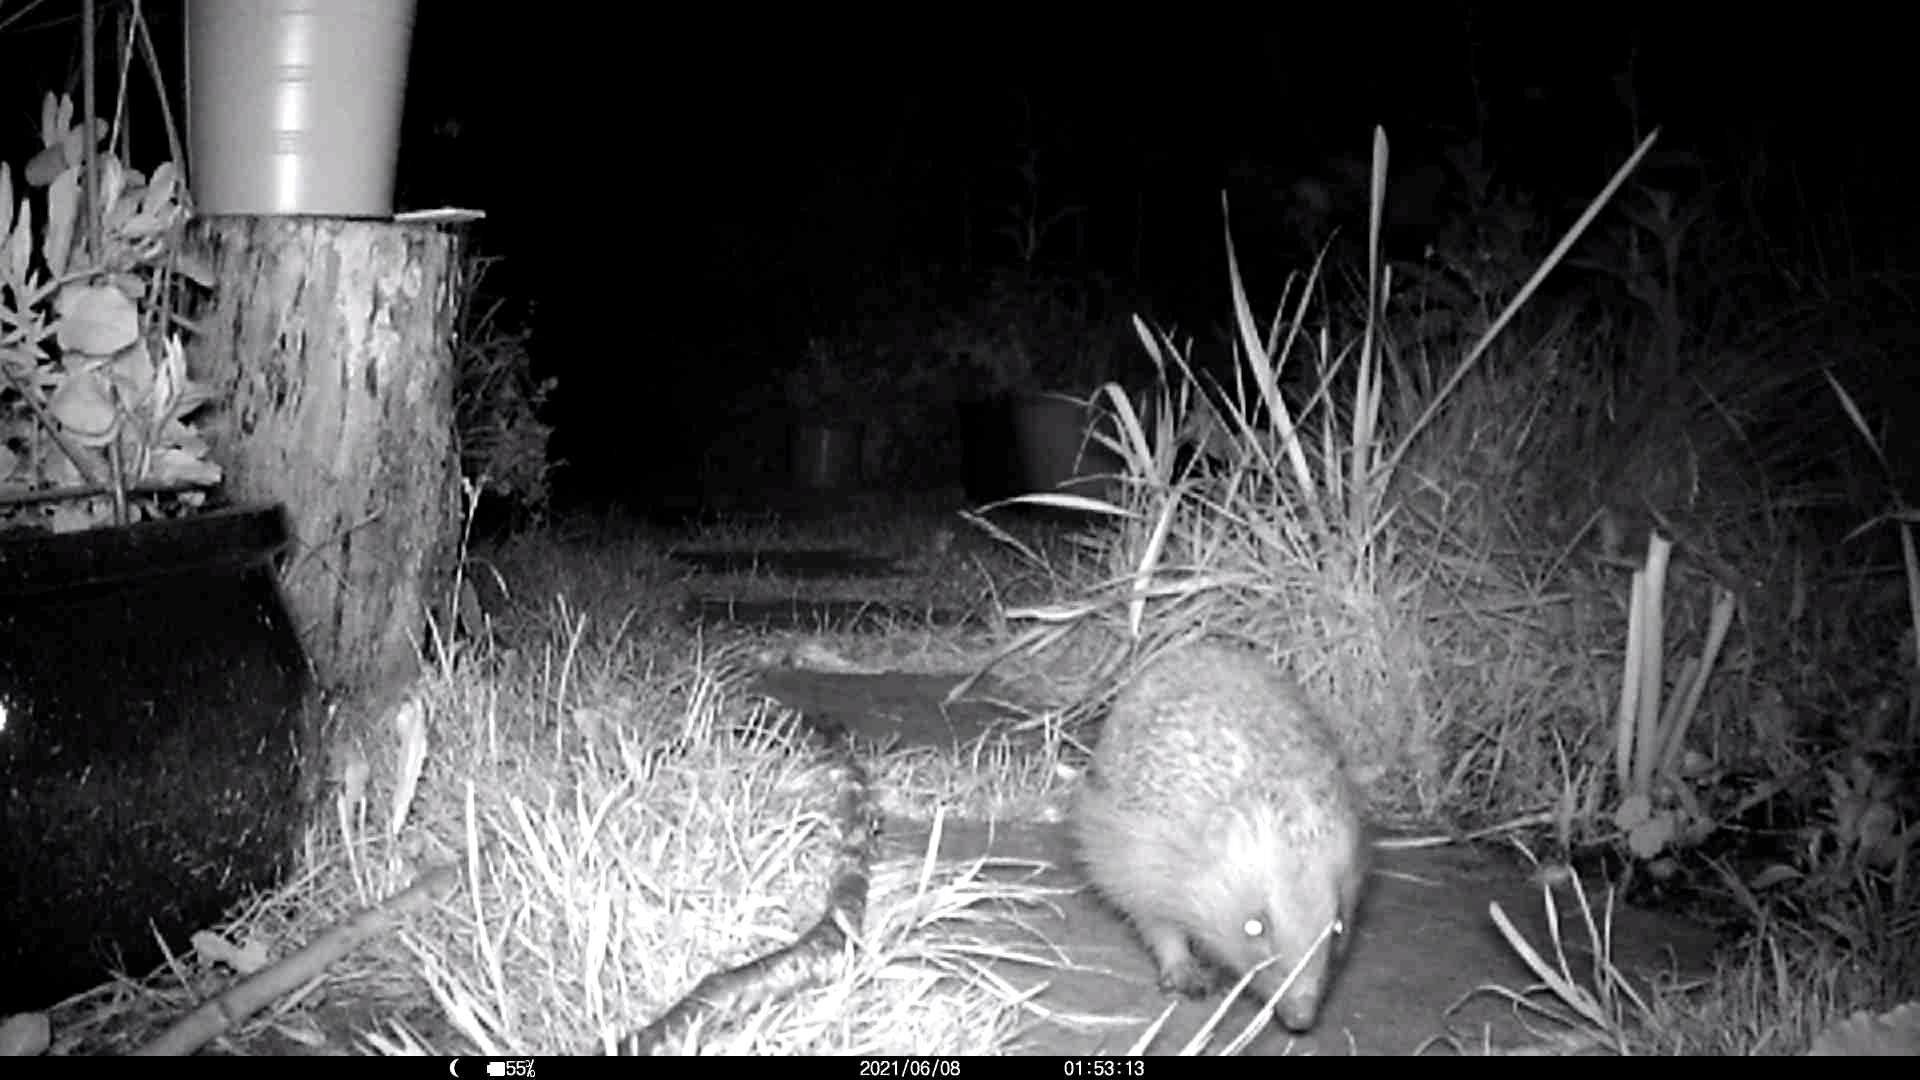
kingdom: Animalia
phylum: Chordata
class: Mammalia
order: Erinaceomorpha
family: Erinaceidae
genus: Erinaceus
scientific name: Erinaceus europaeus
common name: West european hedgehog
